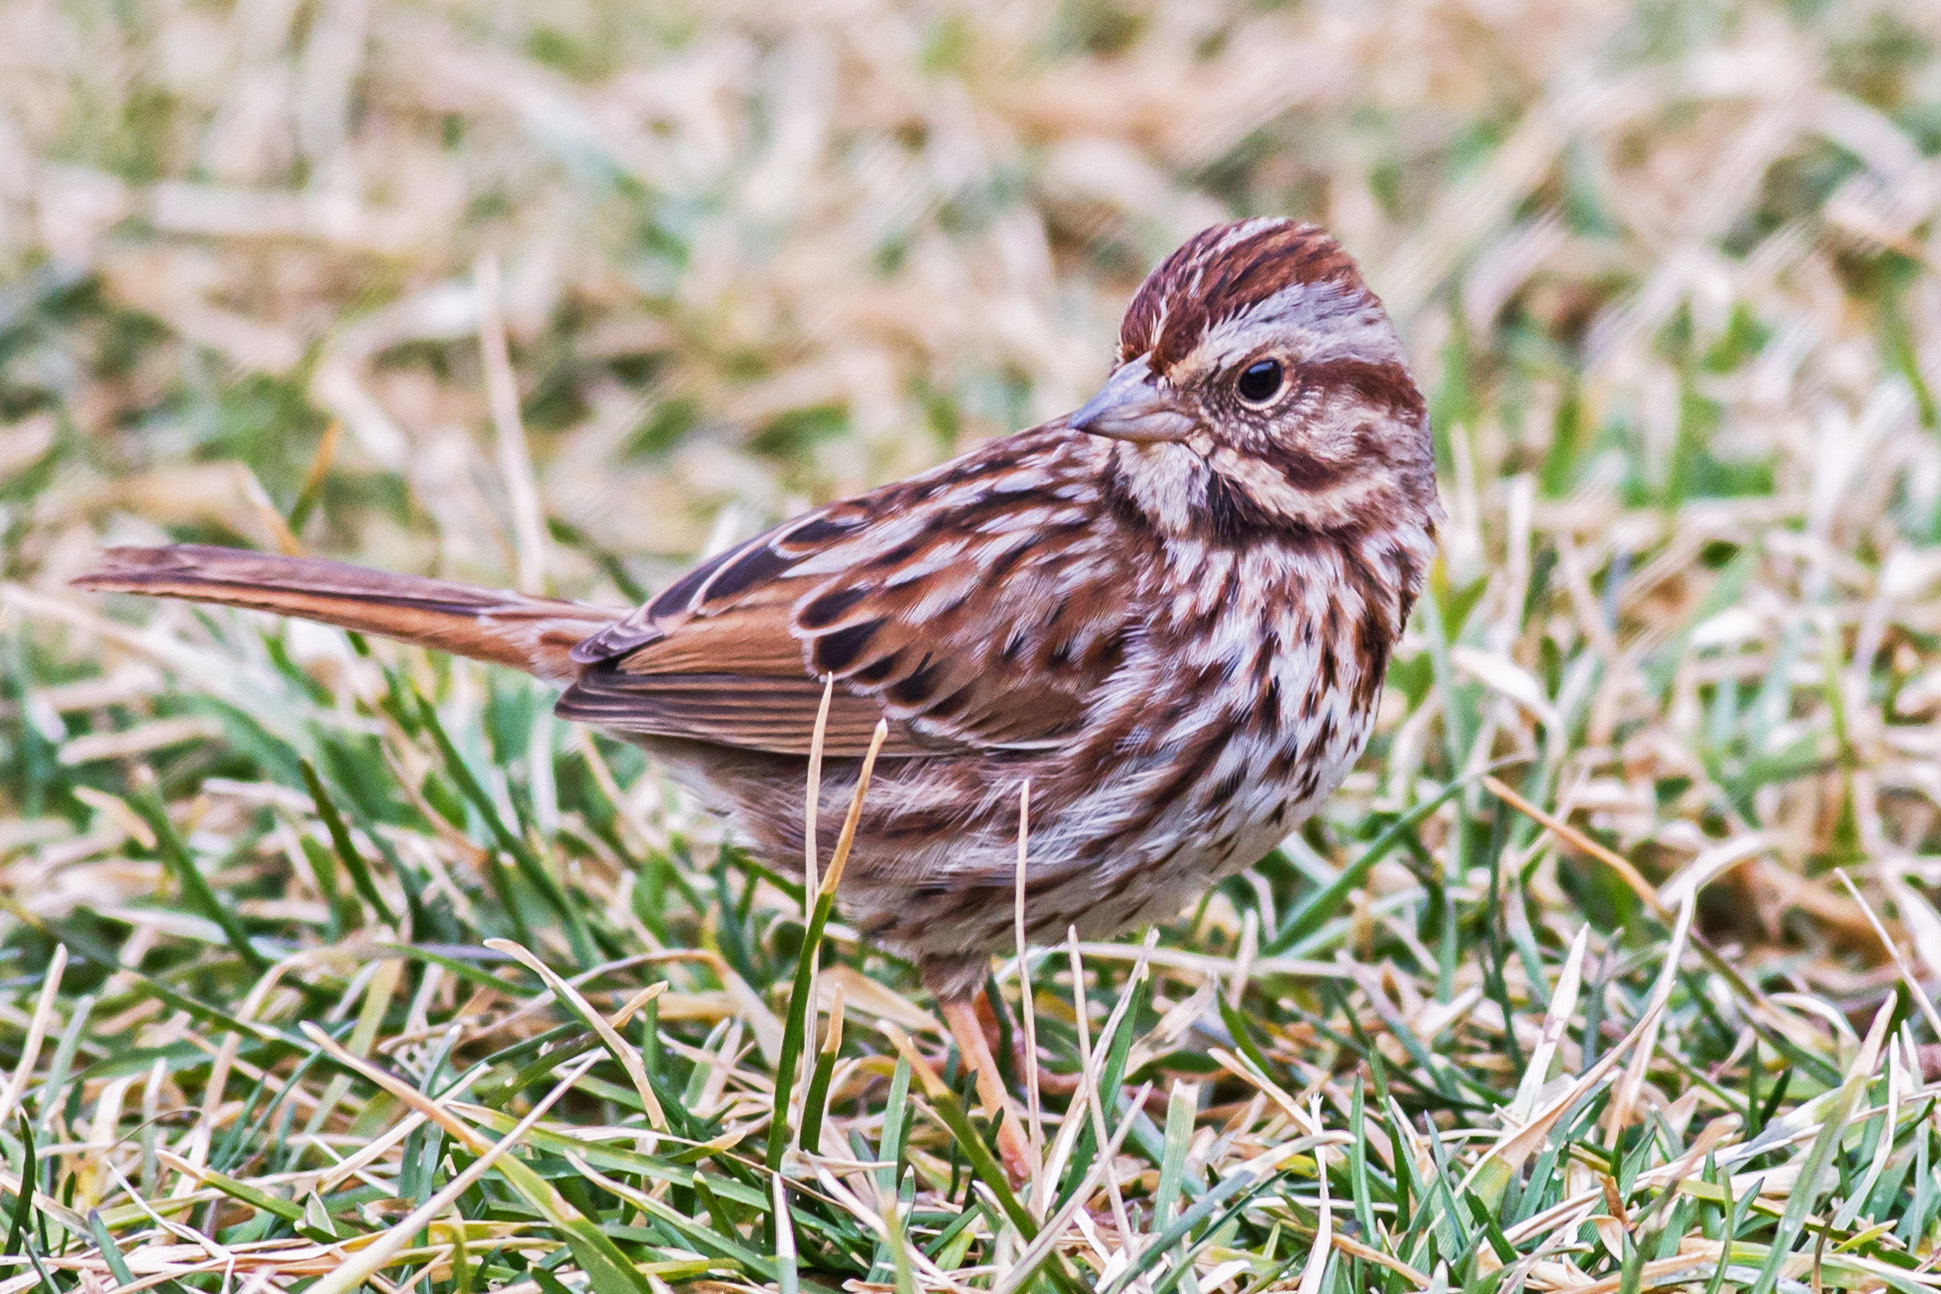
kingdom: Animalia
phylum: Chordata
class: Aves
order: Passeriformes
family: Passerellidae
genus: Melospiza
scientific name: Melospiza melodia
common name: Song sparrow
